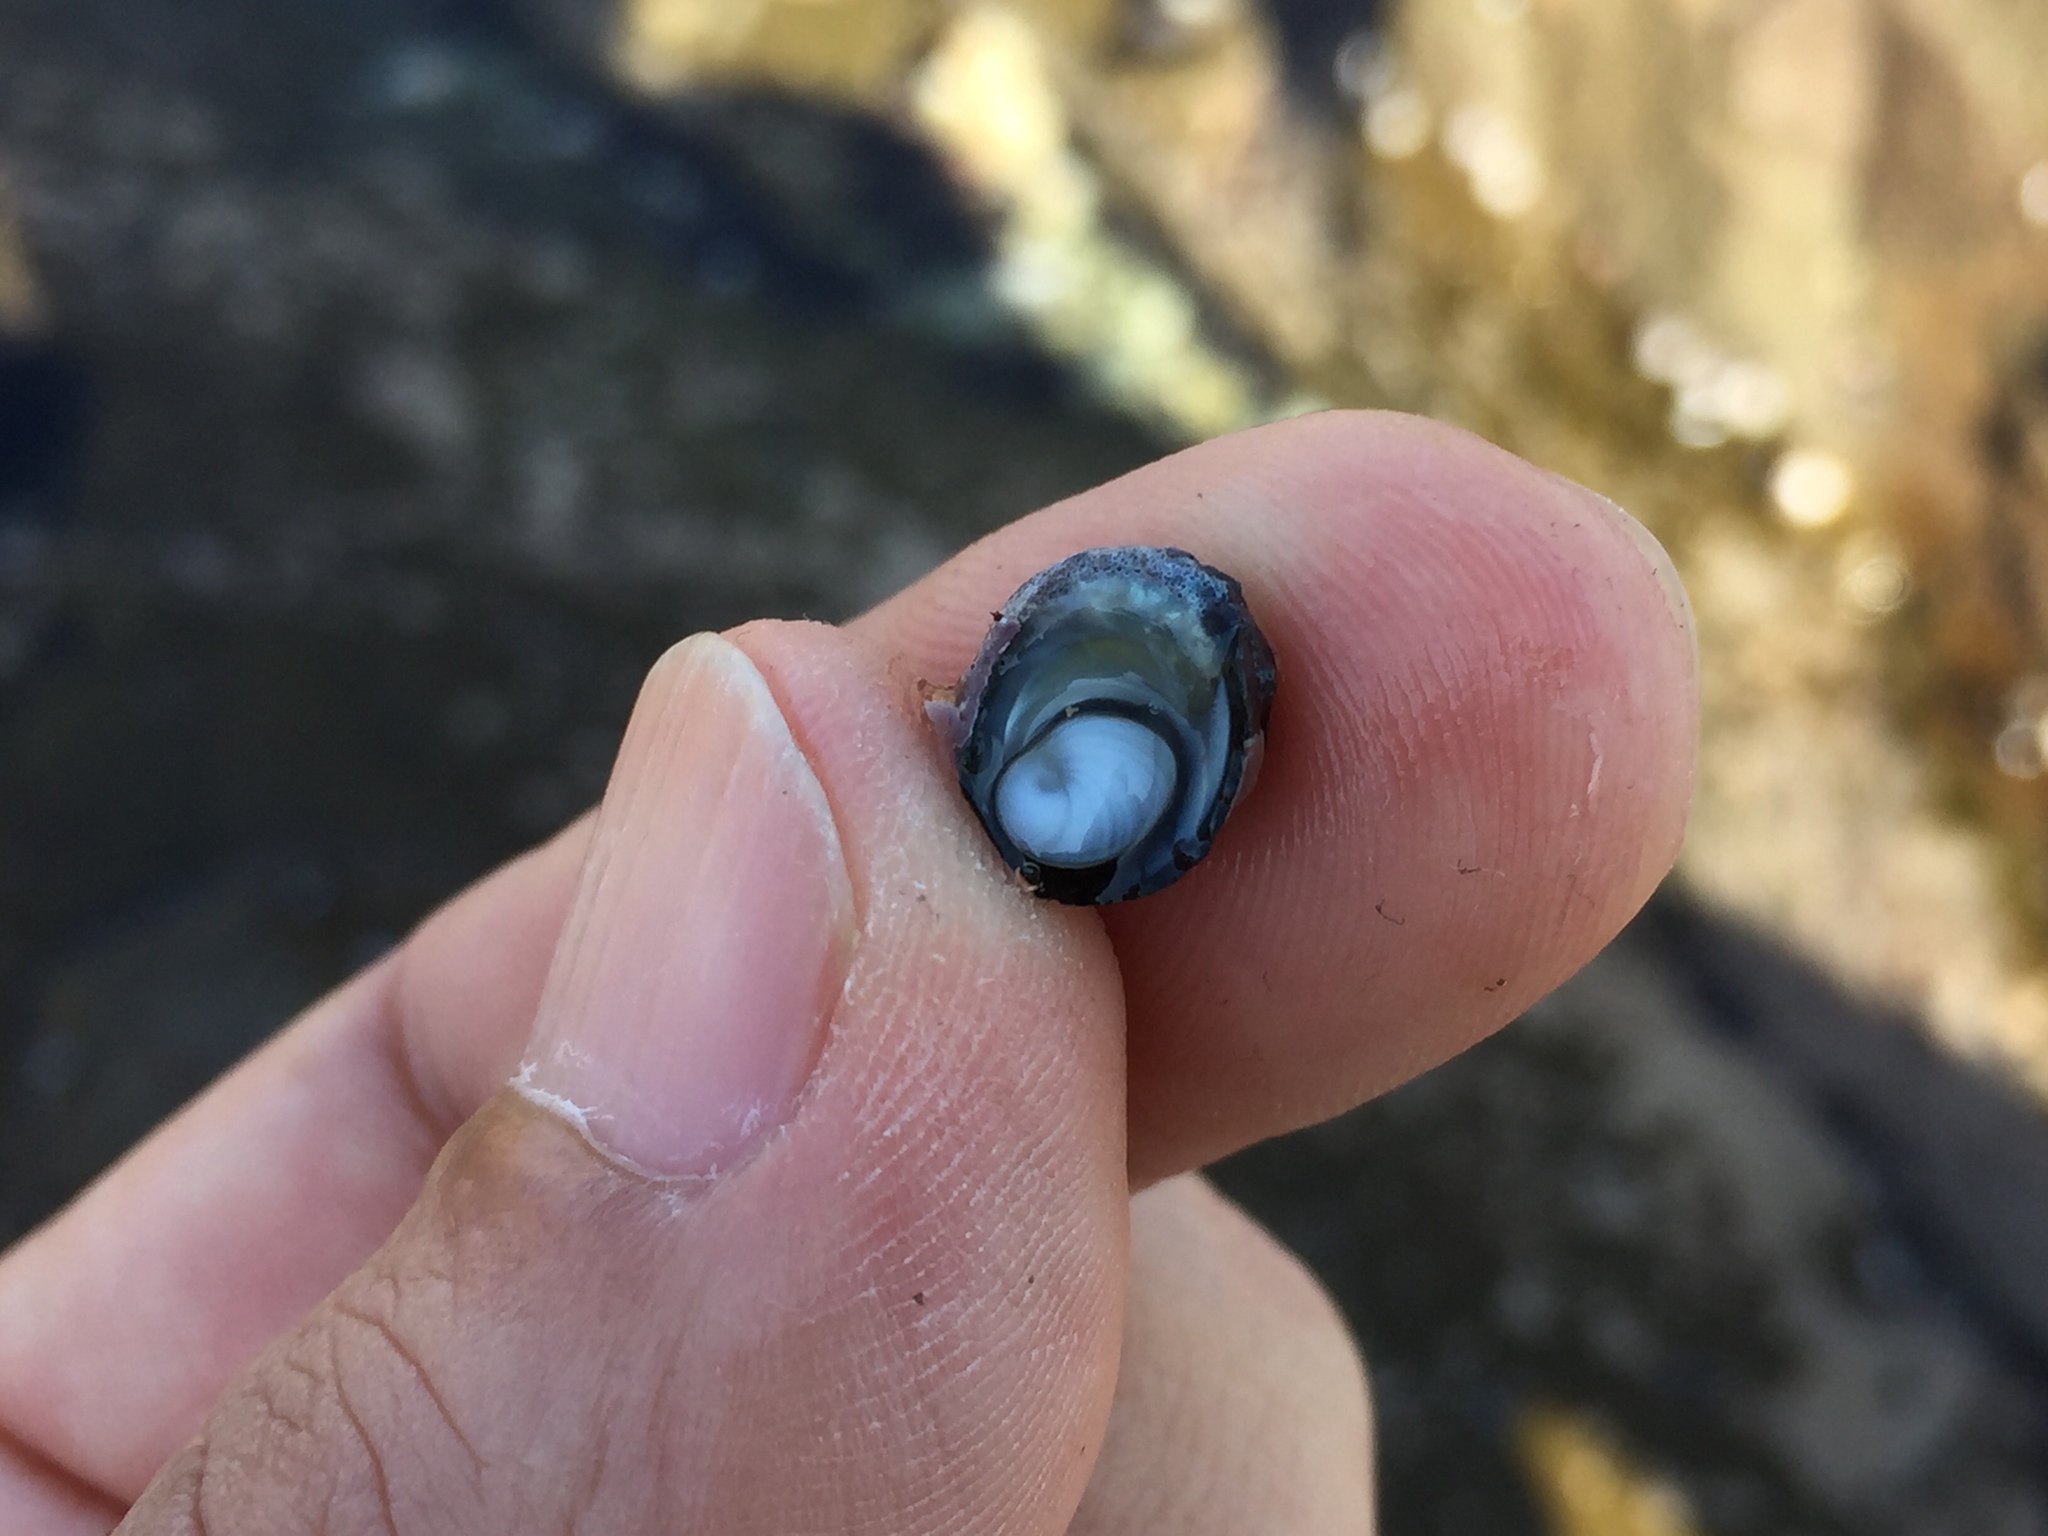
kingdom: Animalia
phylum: Mollusca
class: Gastropoda
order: Trochida
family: Turbinidae
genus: Prisogaster
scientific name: Prisogaster niger
